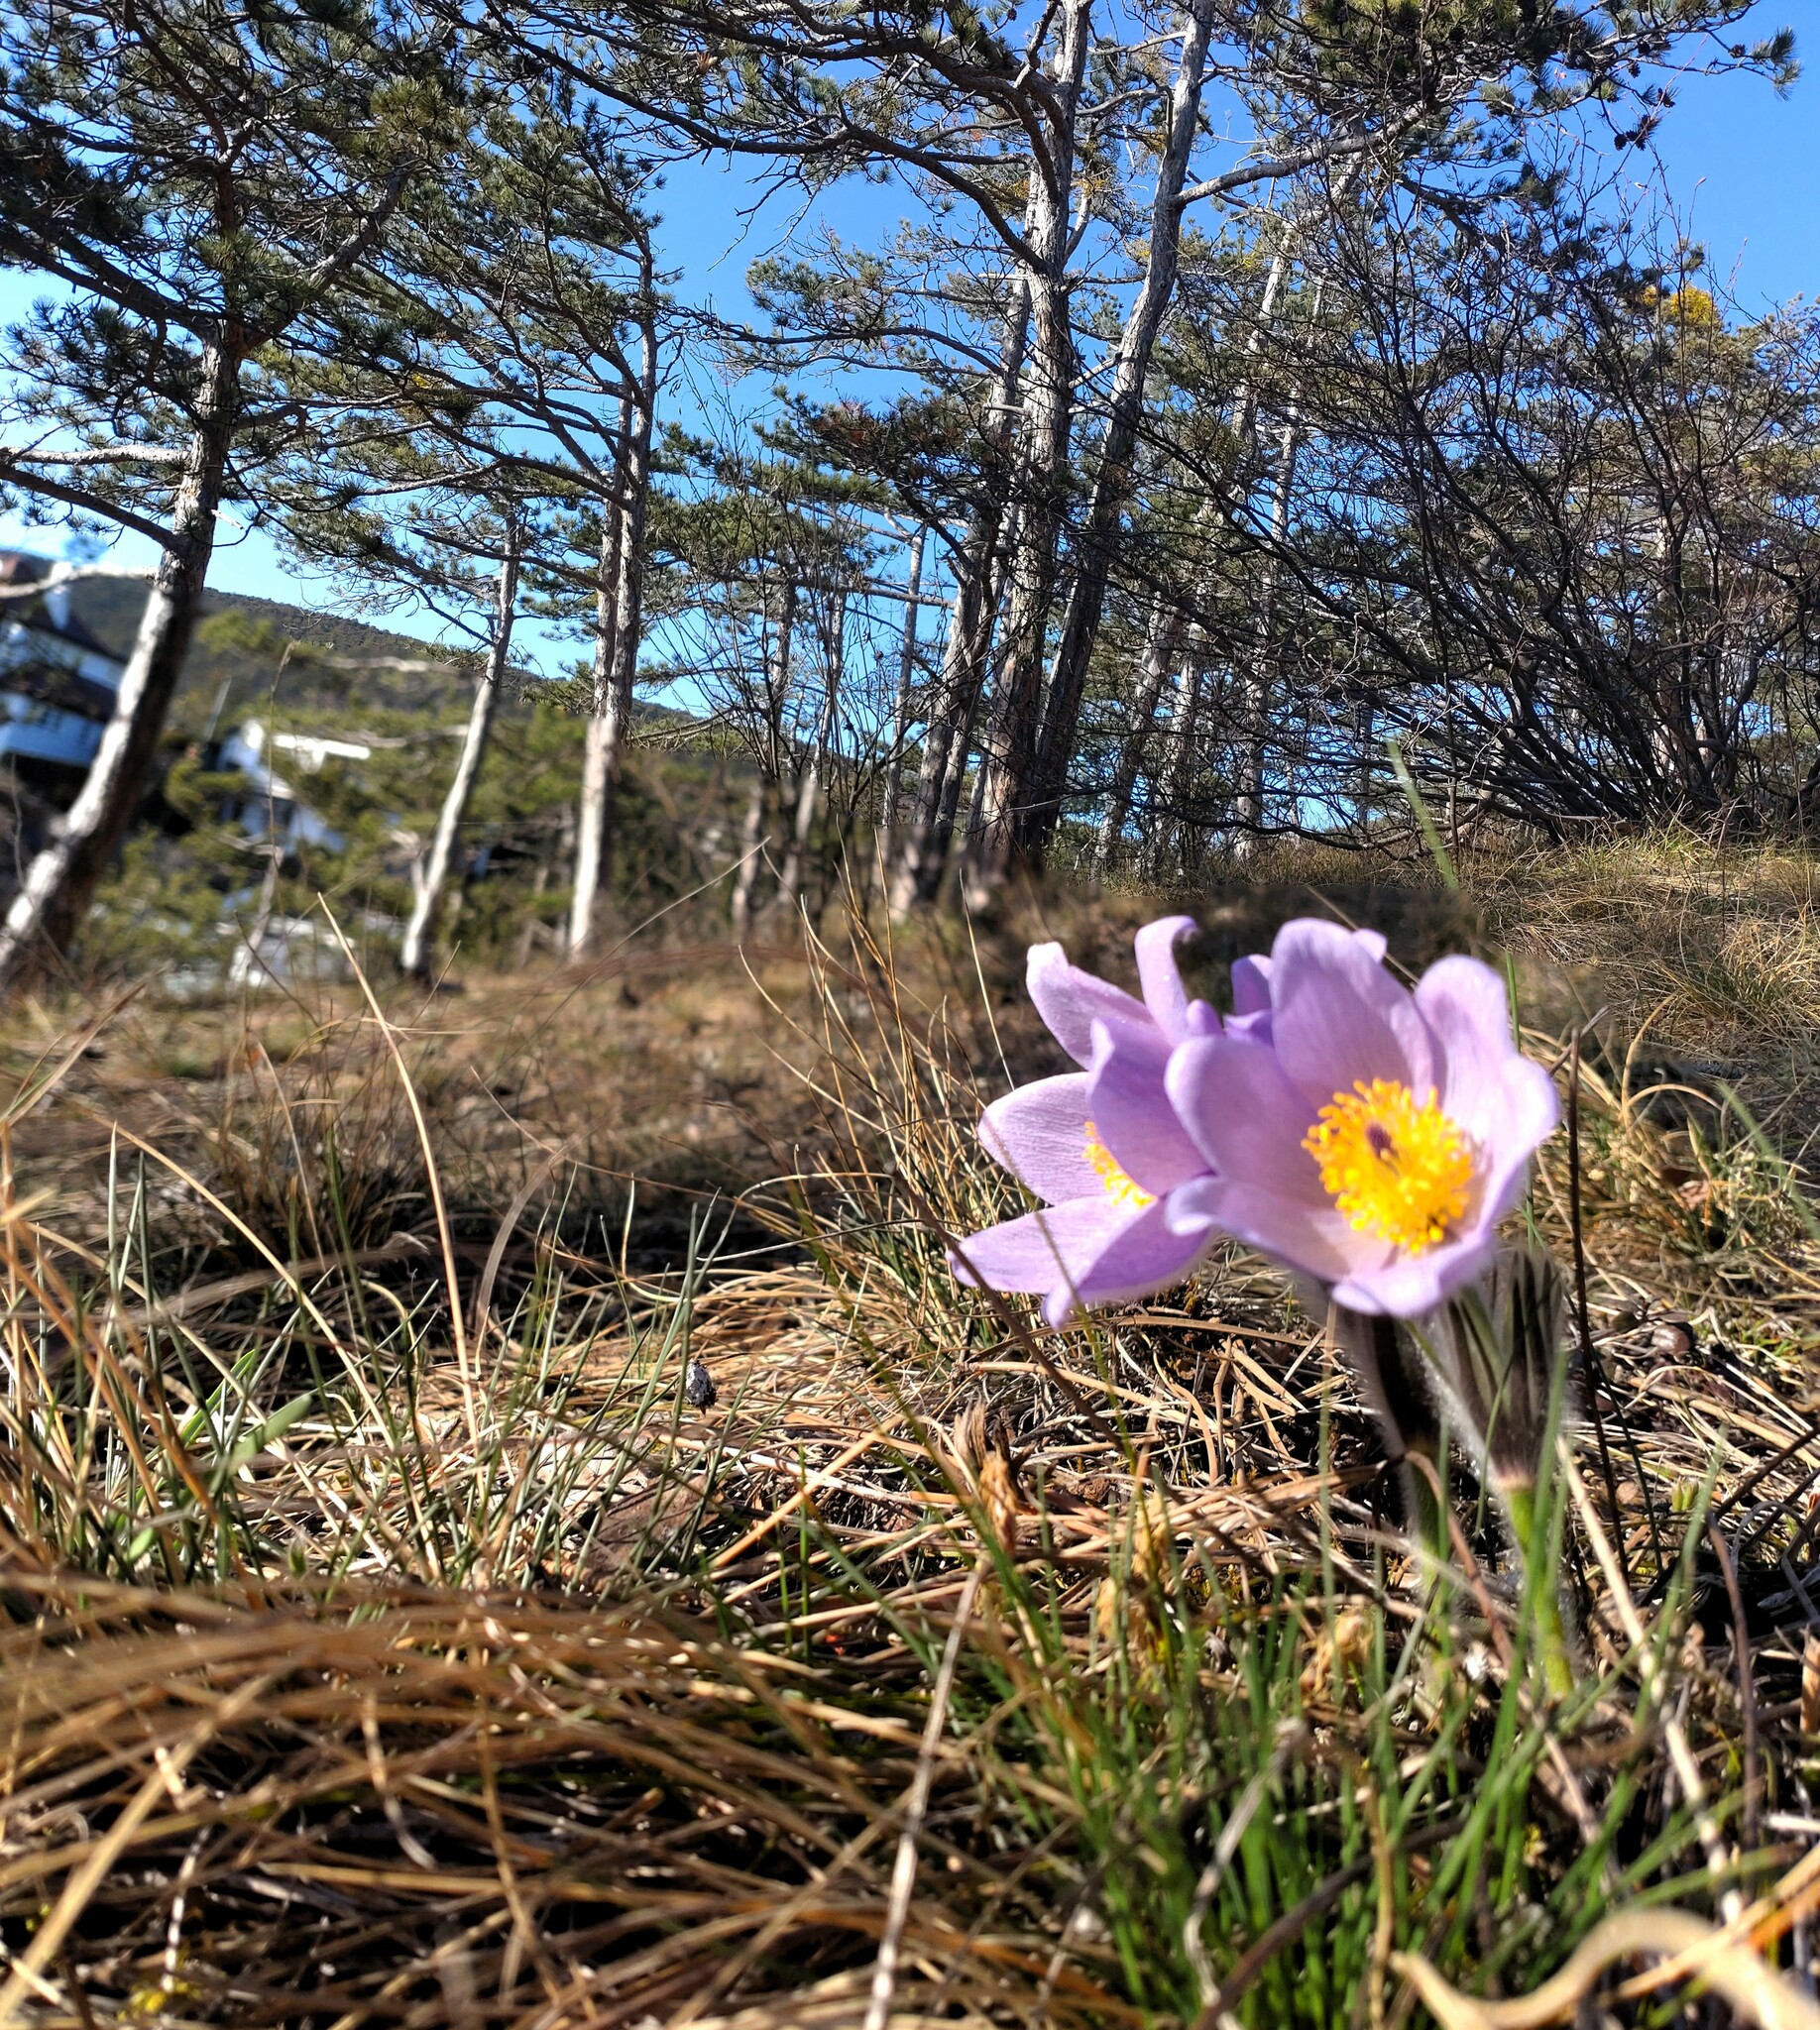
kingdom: Plantae
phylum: Tracheophyta
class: Magnoliopsida
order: Ranunculales
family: Ranunculaceae
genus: Pulsatilla
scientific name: Pulsatilla grandis
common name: Greater pasque flower
